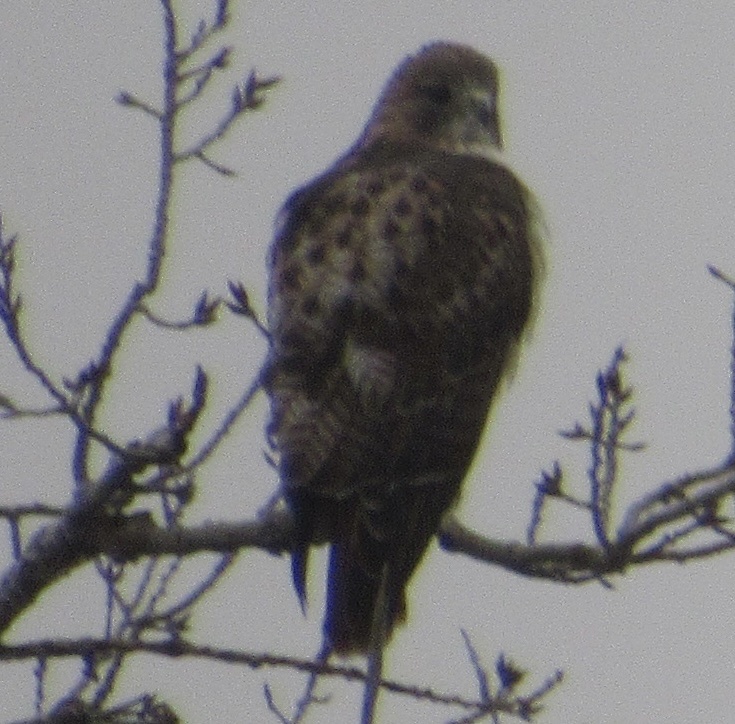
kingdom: Animalia
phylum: Chordata
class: Aves
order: Accipitriformes
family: Accipitridae
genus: Buteo
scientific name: Buteo jamaicensis
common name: Red-tailed hawk
